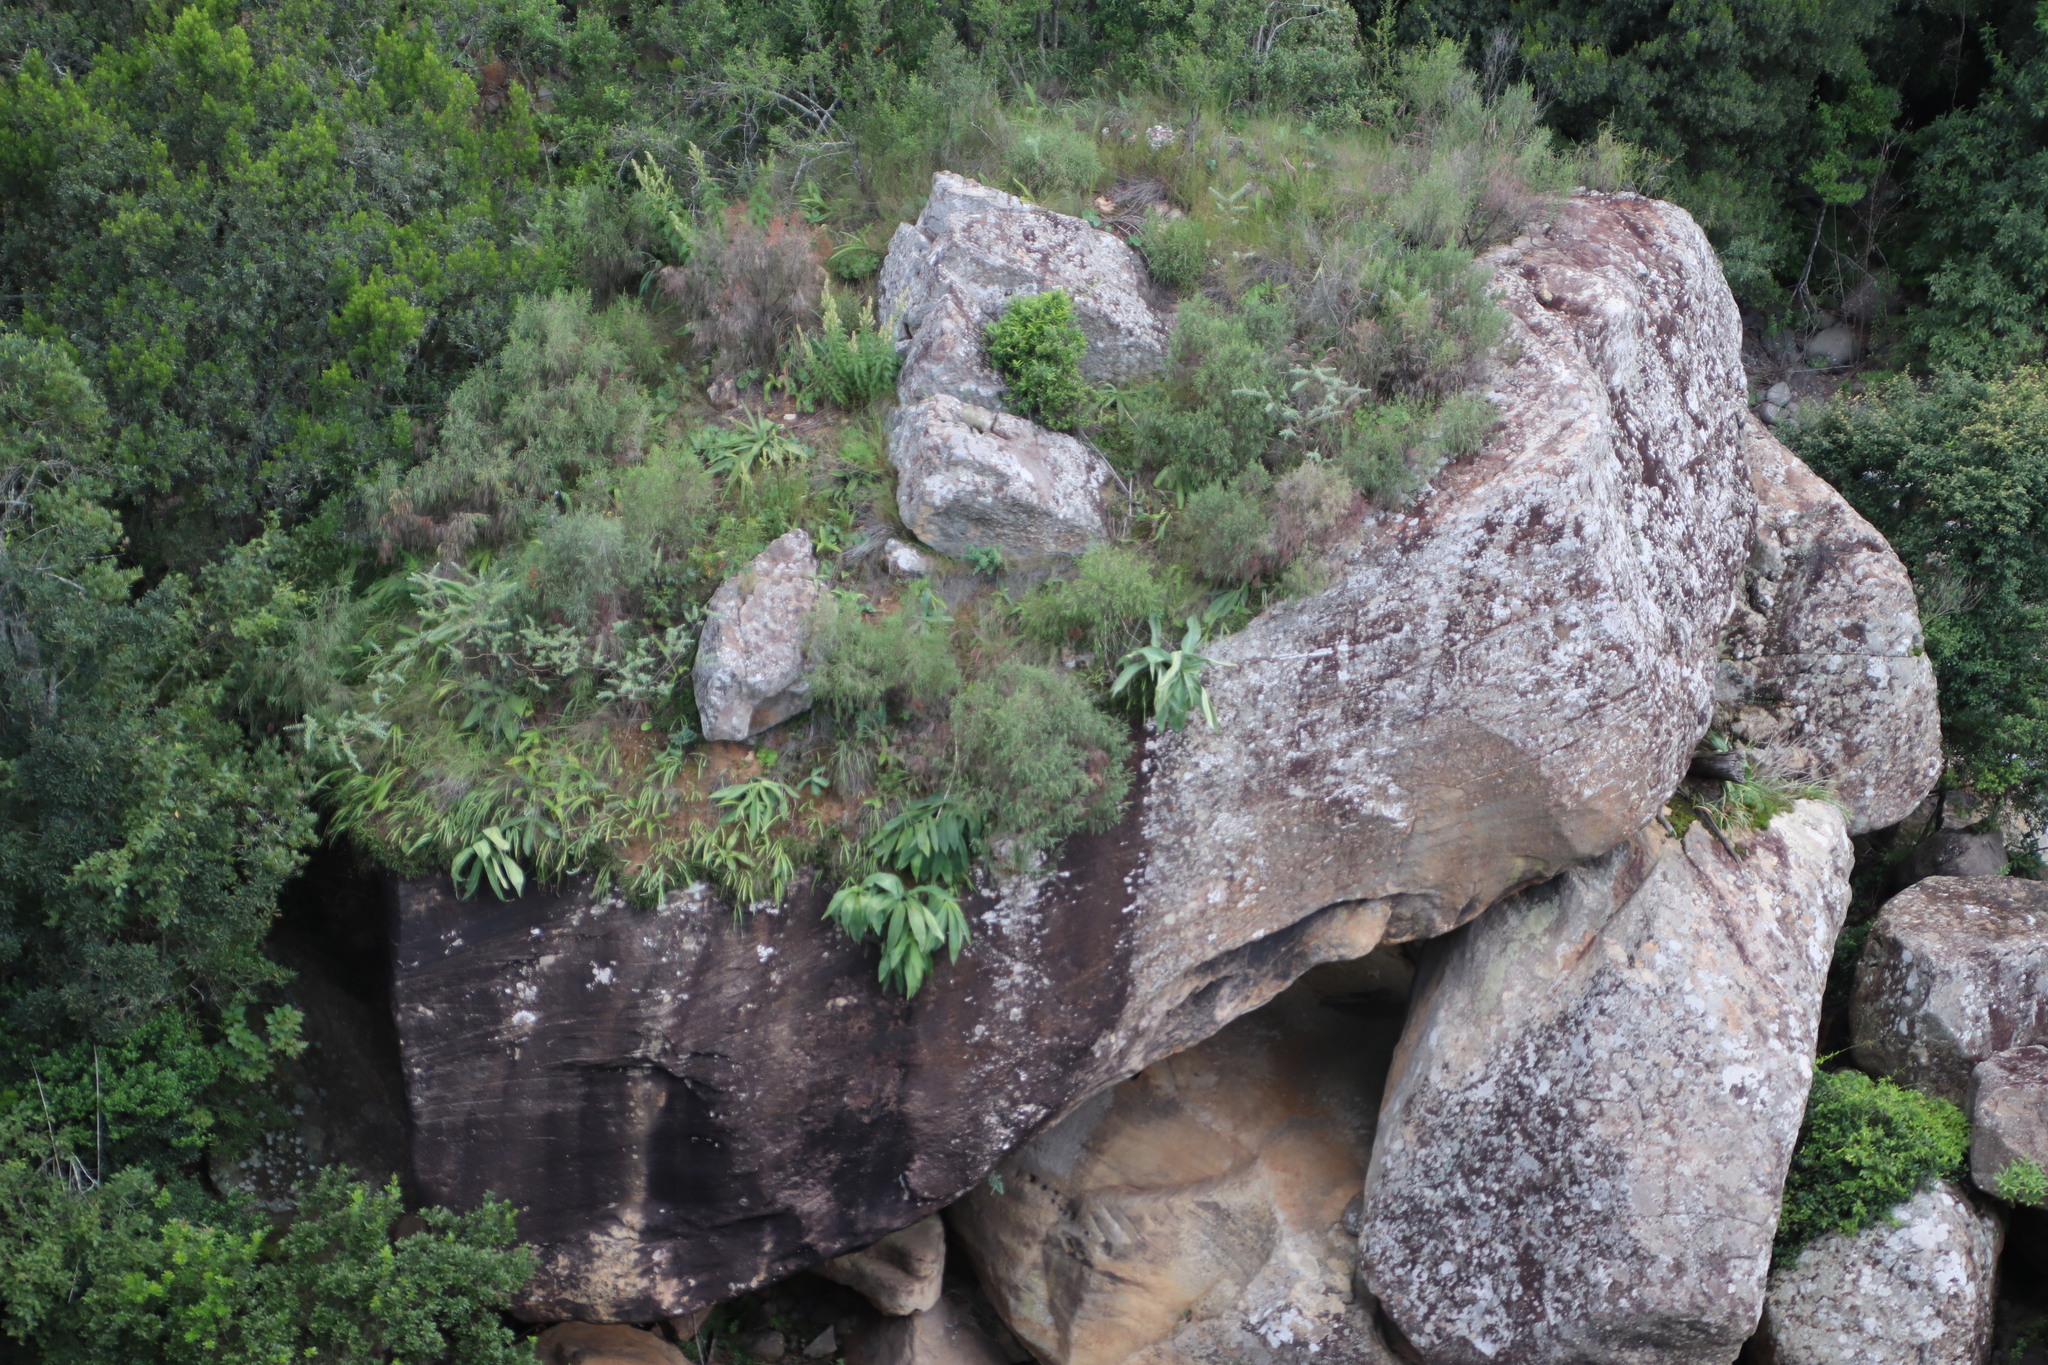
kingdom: Plantae
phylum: Tracheophyta
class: Liliopsida
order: Asparagales
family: Asparagaceae
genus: Merwilla
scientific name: Merwilla plumbea
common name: Blue-squill
